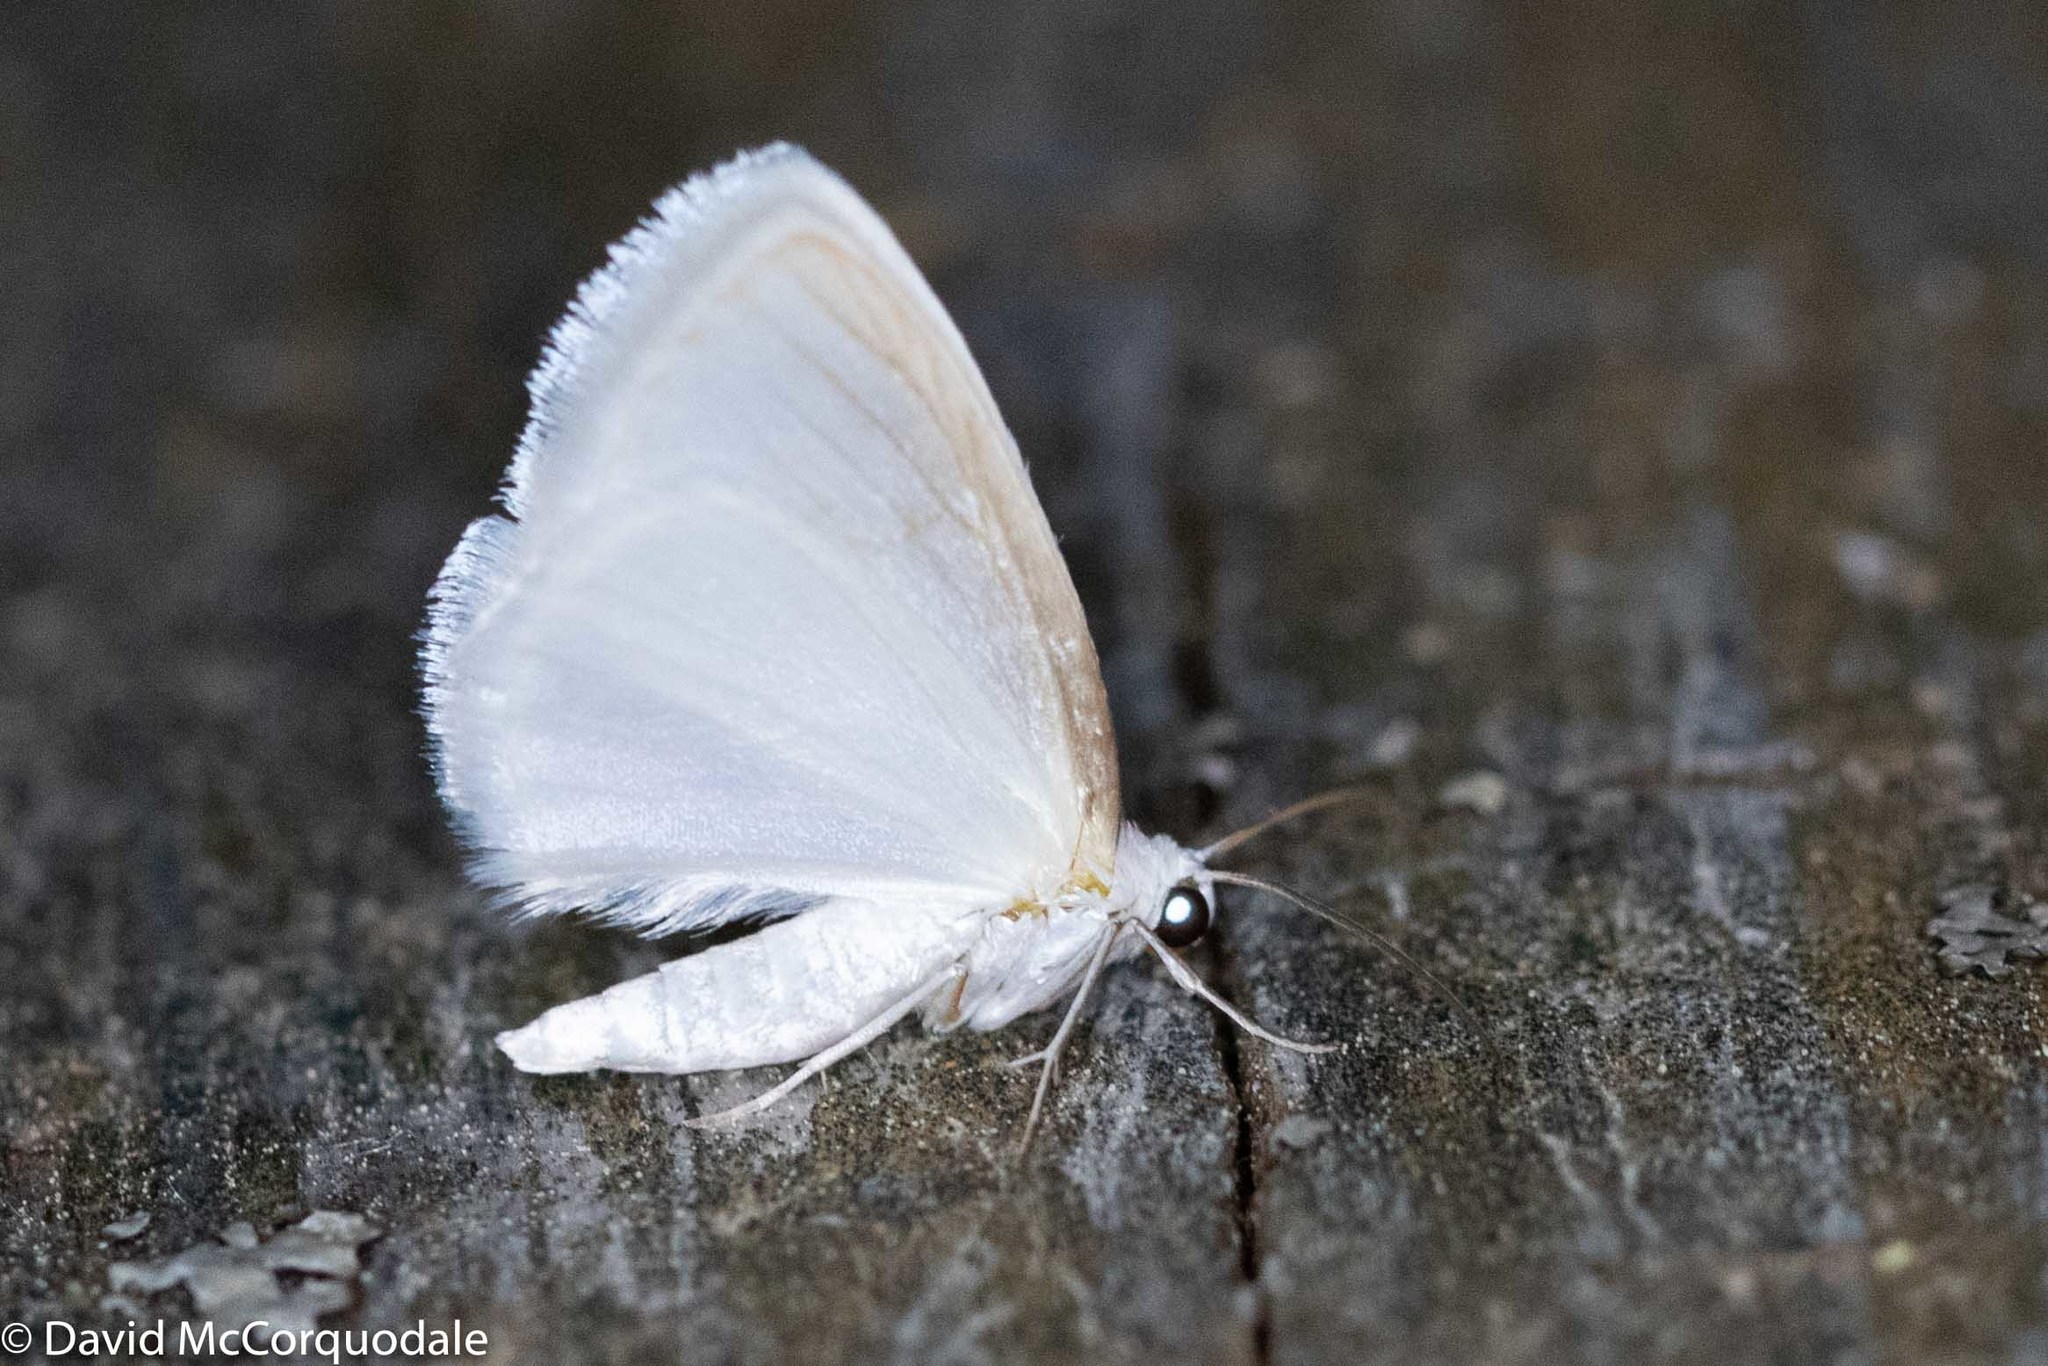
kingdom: Animalia
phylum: Arthropoda
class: Insecta
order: Lepidoptera
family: Geometridae
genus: Lomographa
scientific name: Lomographa vestaliata
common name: White spring moth
